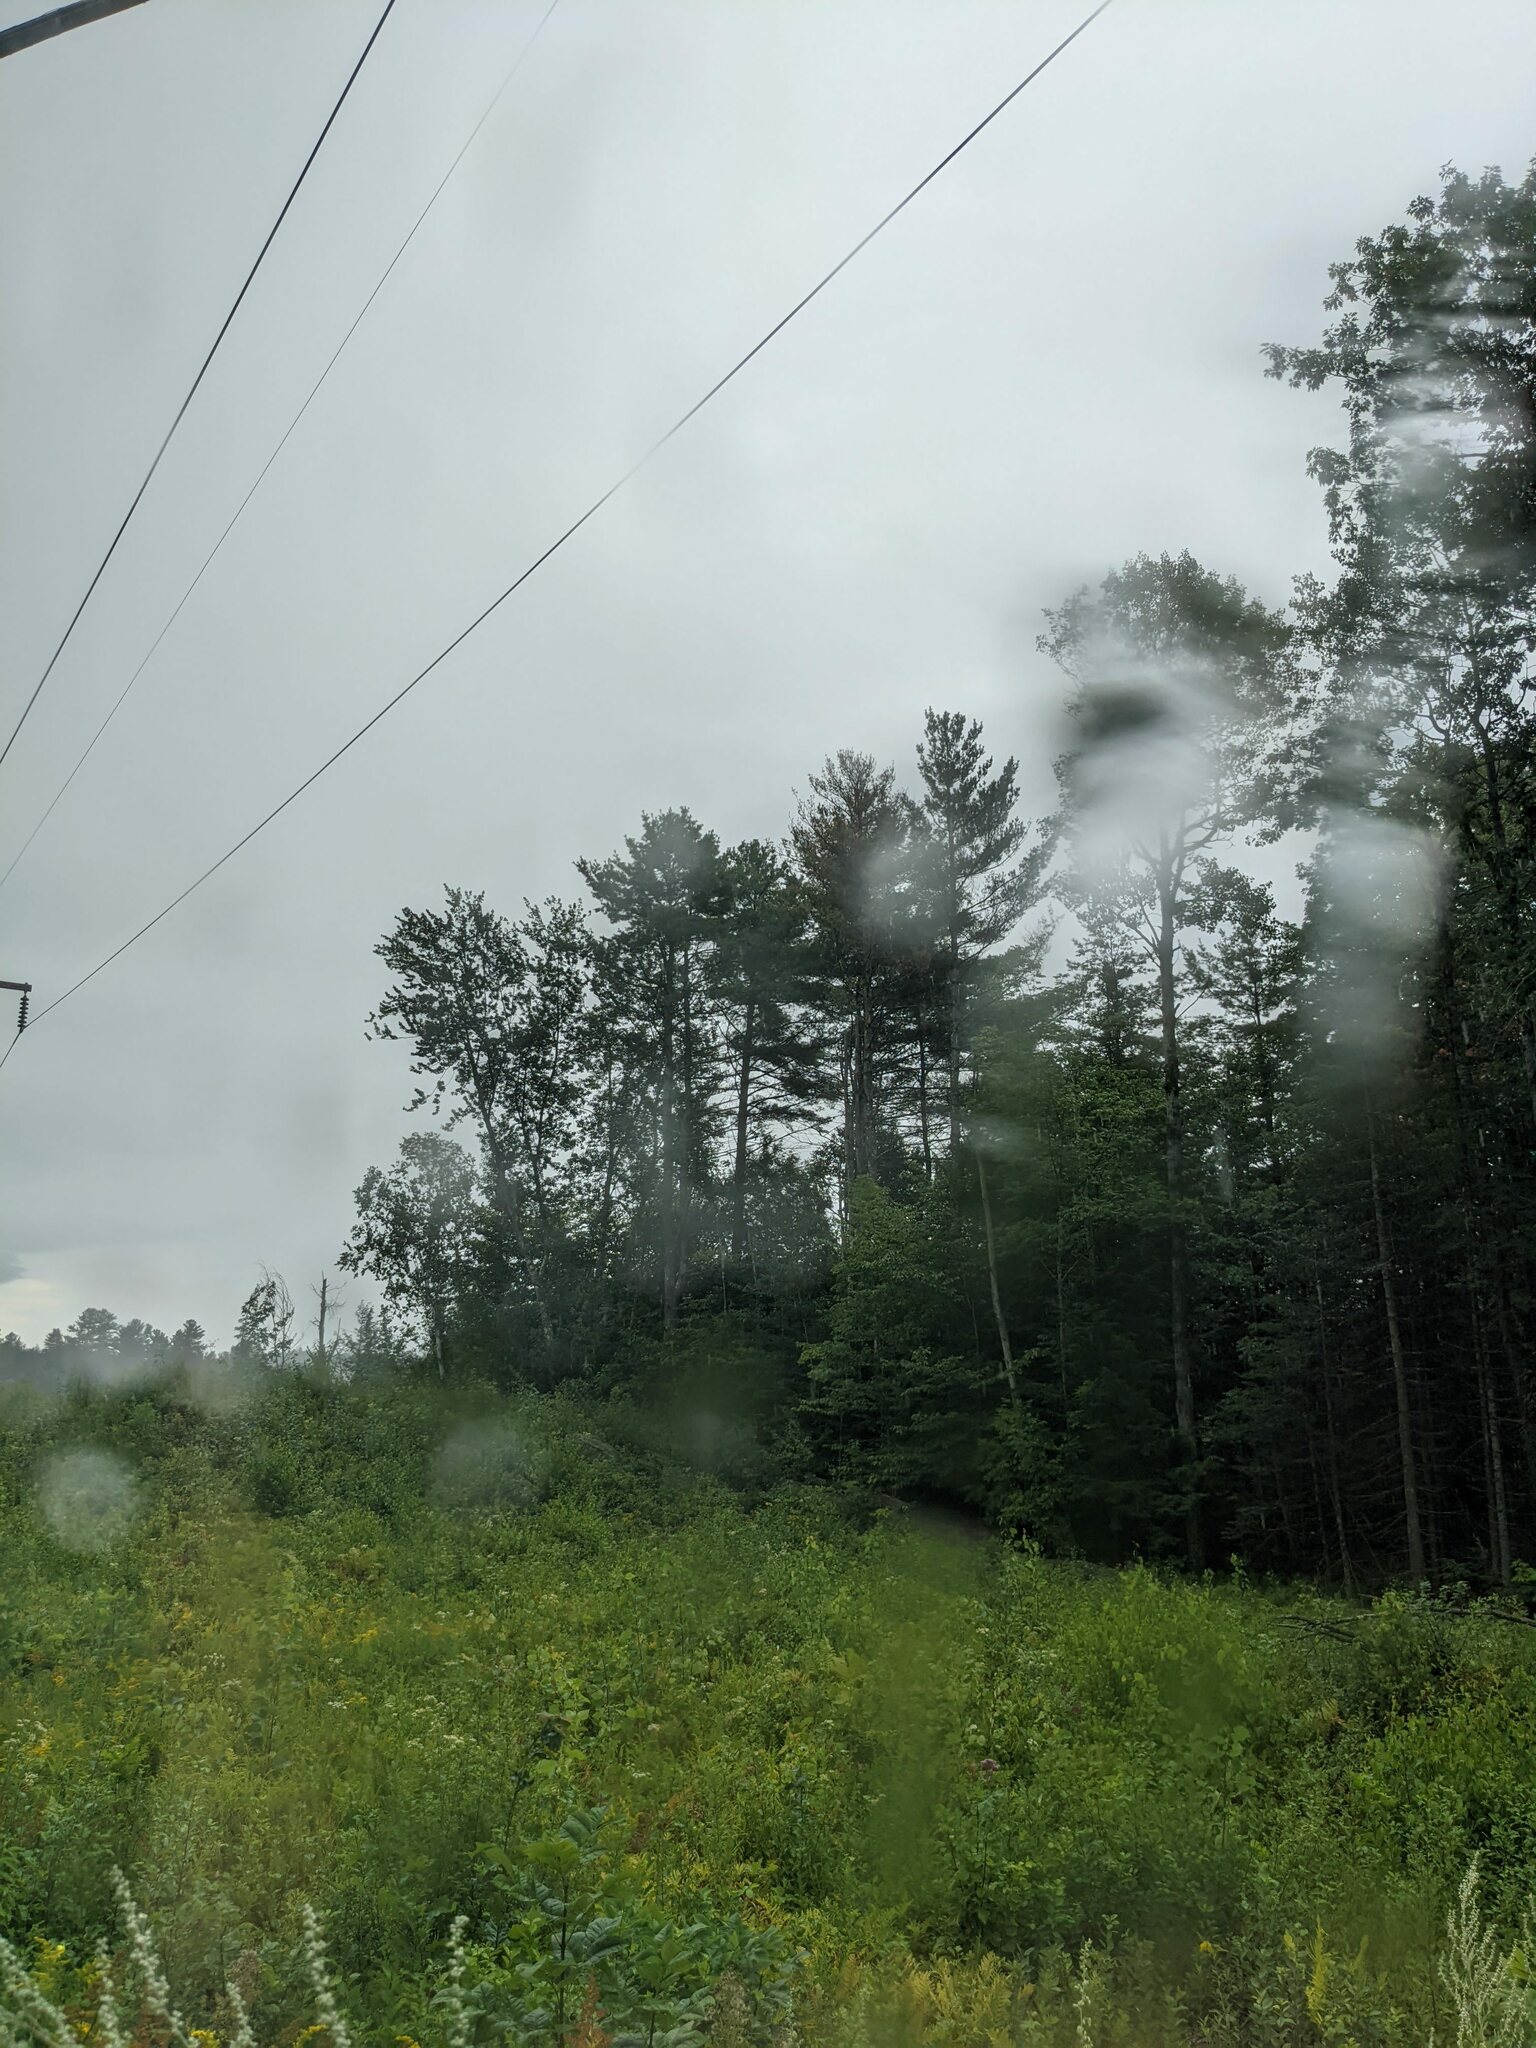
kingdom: Plantae
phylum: Tracheophyta
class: Pinopsida
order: Pinales
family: Pinaceae
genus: Pinus
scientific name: Pinus strobus
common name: Weymouth pine
